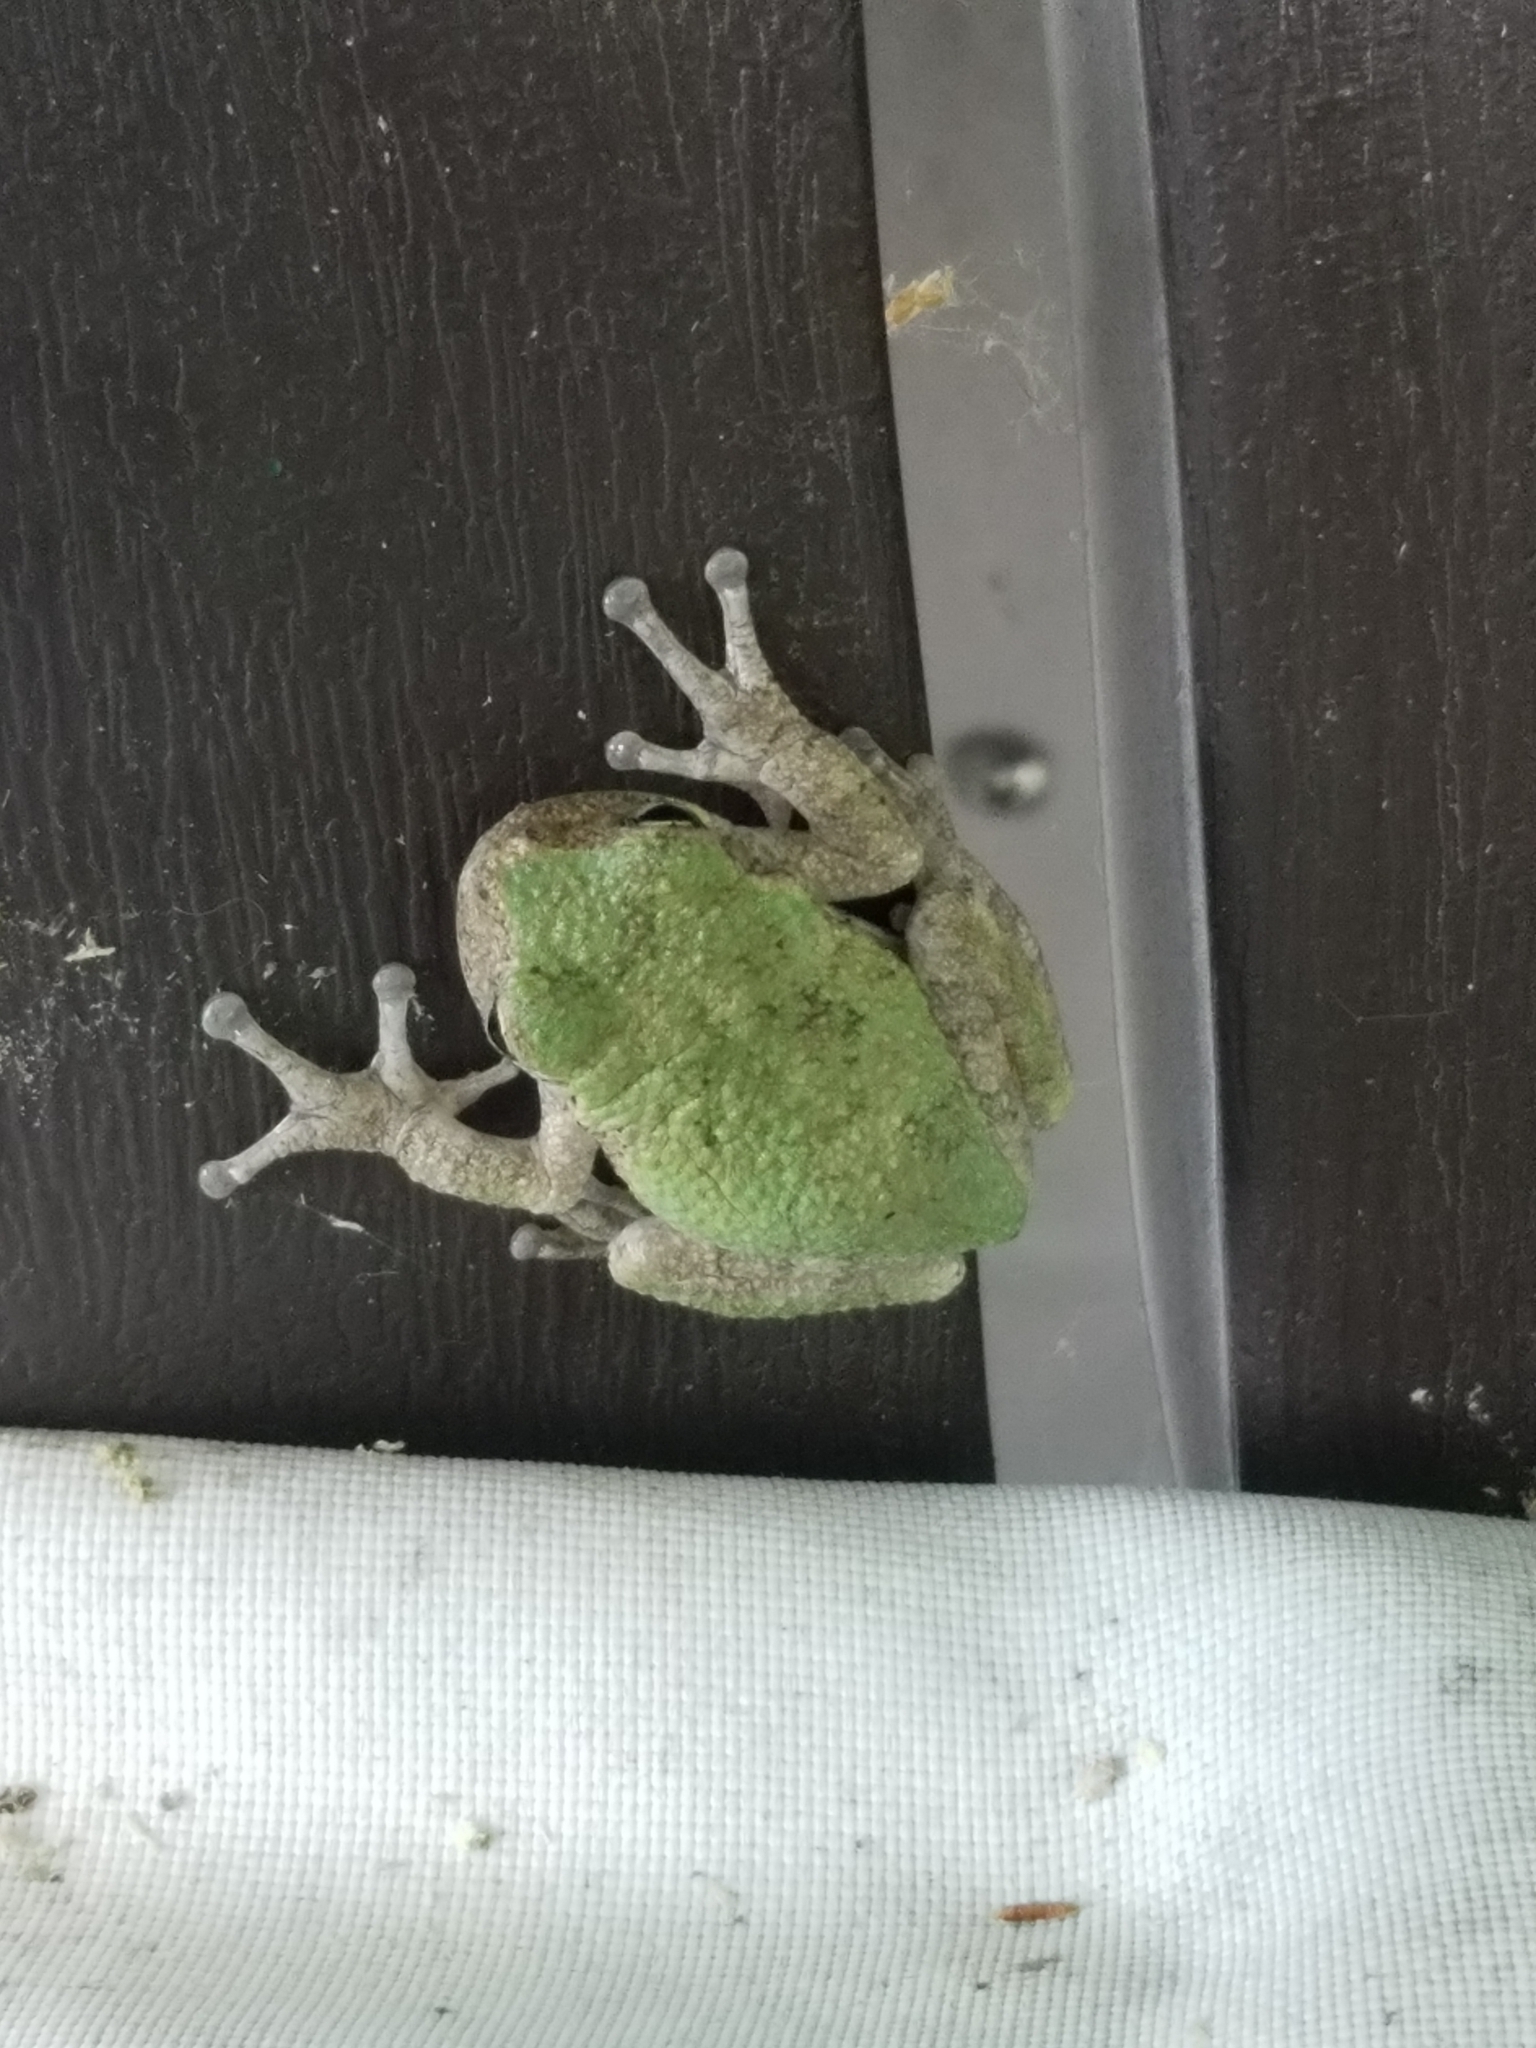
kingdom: Animalia
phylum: Chordata
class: Amphibia
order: Anura
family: Hylidae
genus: Dryophytes
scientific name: Dryophytes avivoca
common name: Bird-voiced treefrog
